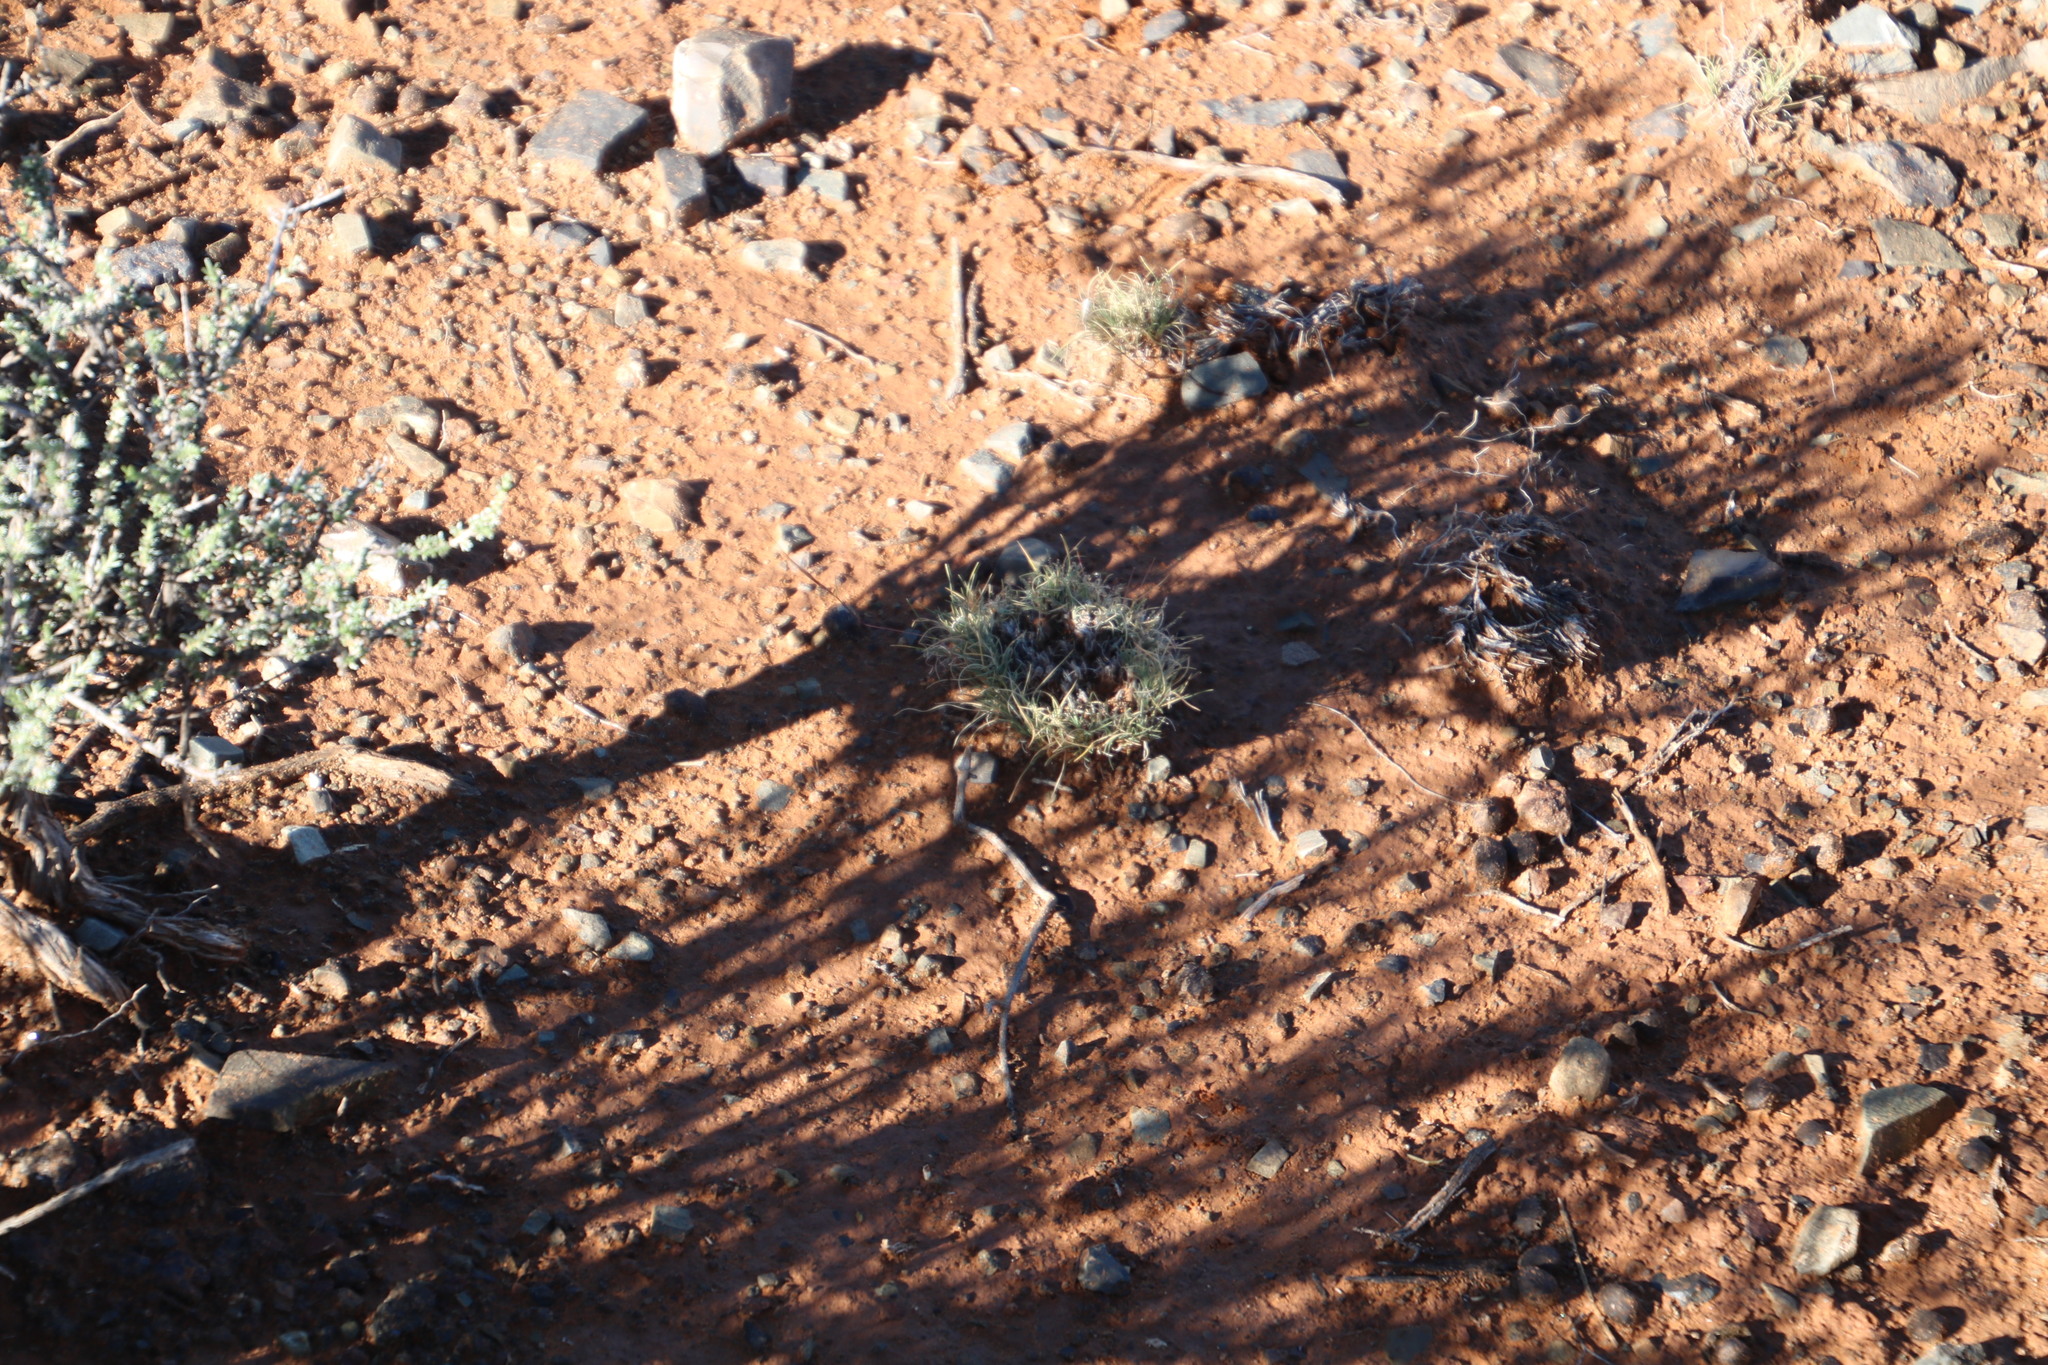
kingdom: Plantae
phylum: Tracheophyta
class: Liliopsida
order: Poales
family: Poaceae
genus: Stipagrostis
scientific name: Stipagrostis obtusa
